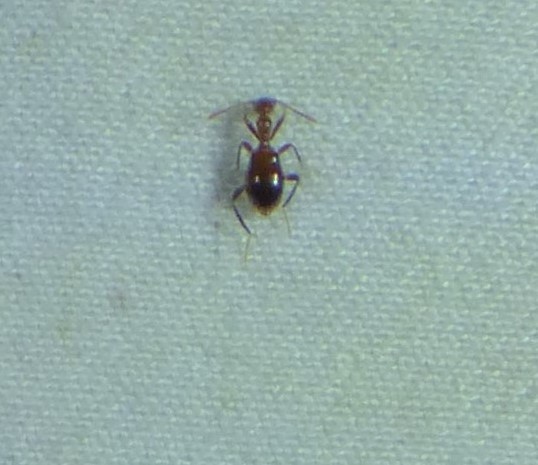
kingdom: Animalia
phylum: Arthropoda
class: Insecta
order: Coleoptera
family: Anthicidae
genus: Acanthinus
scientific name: Acanthinus
